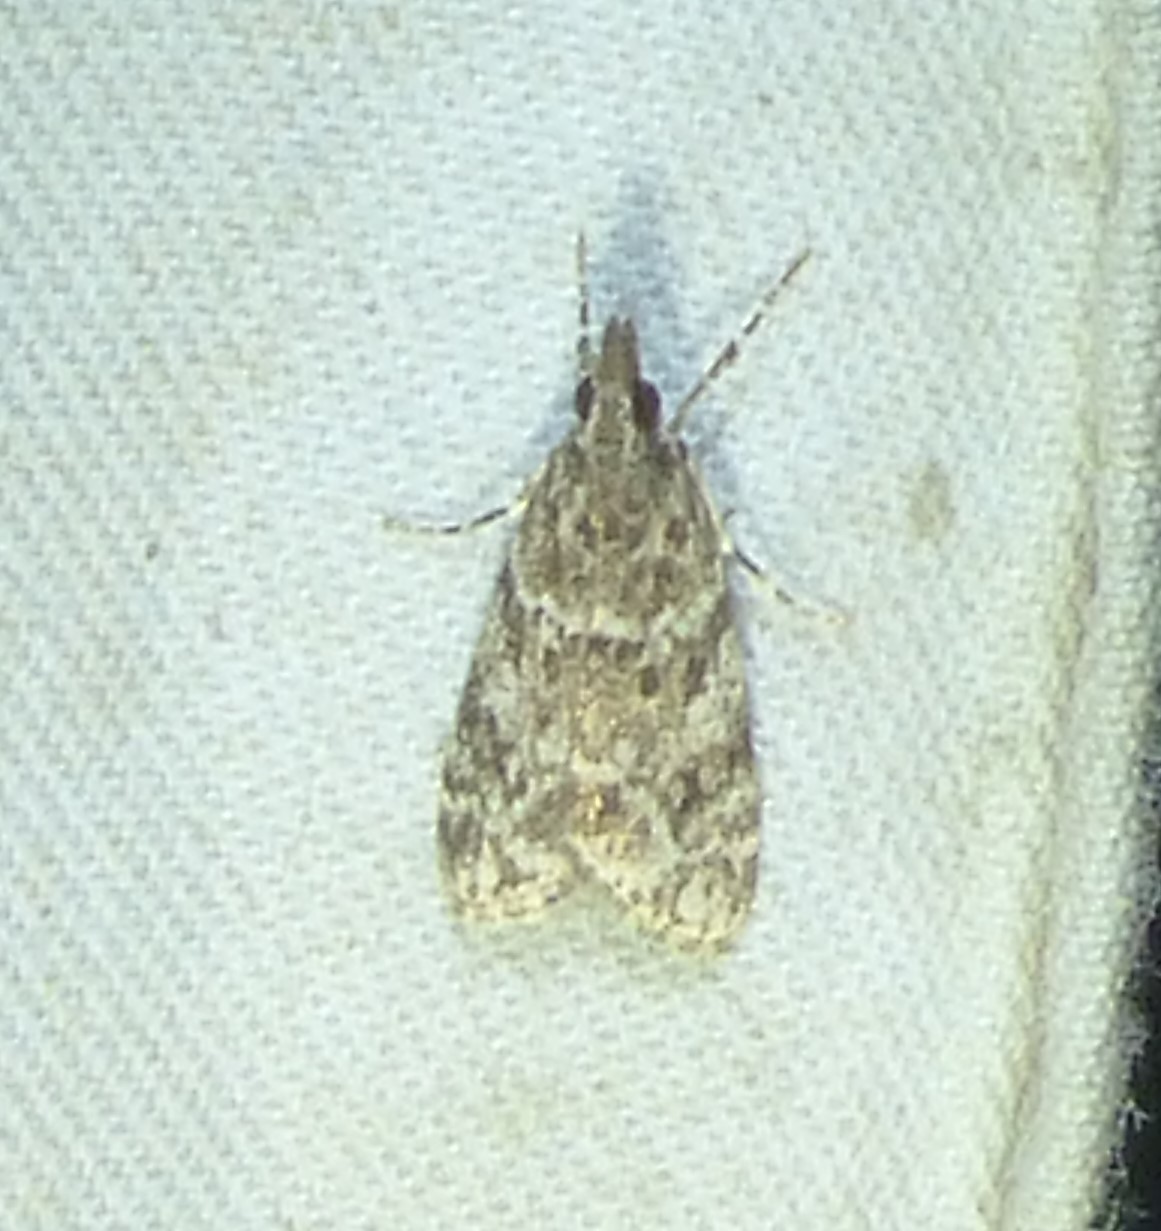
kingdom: Animalia
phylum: Arthropoda
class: Insecta
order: Lepidoptera
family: Crambidae
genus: Eudonia
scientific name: Eudonia heterosalis
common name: Mcdunnough's eudonia
